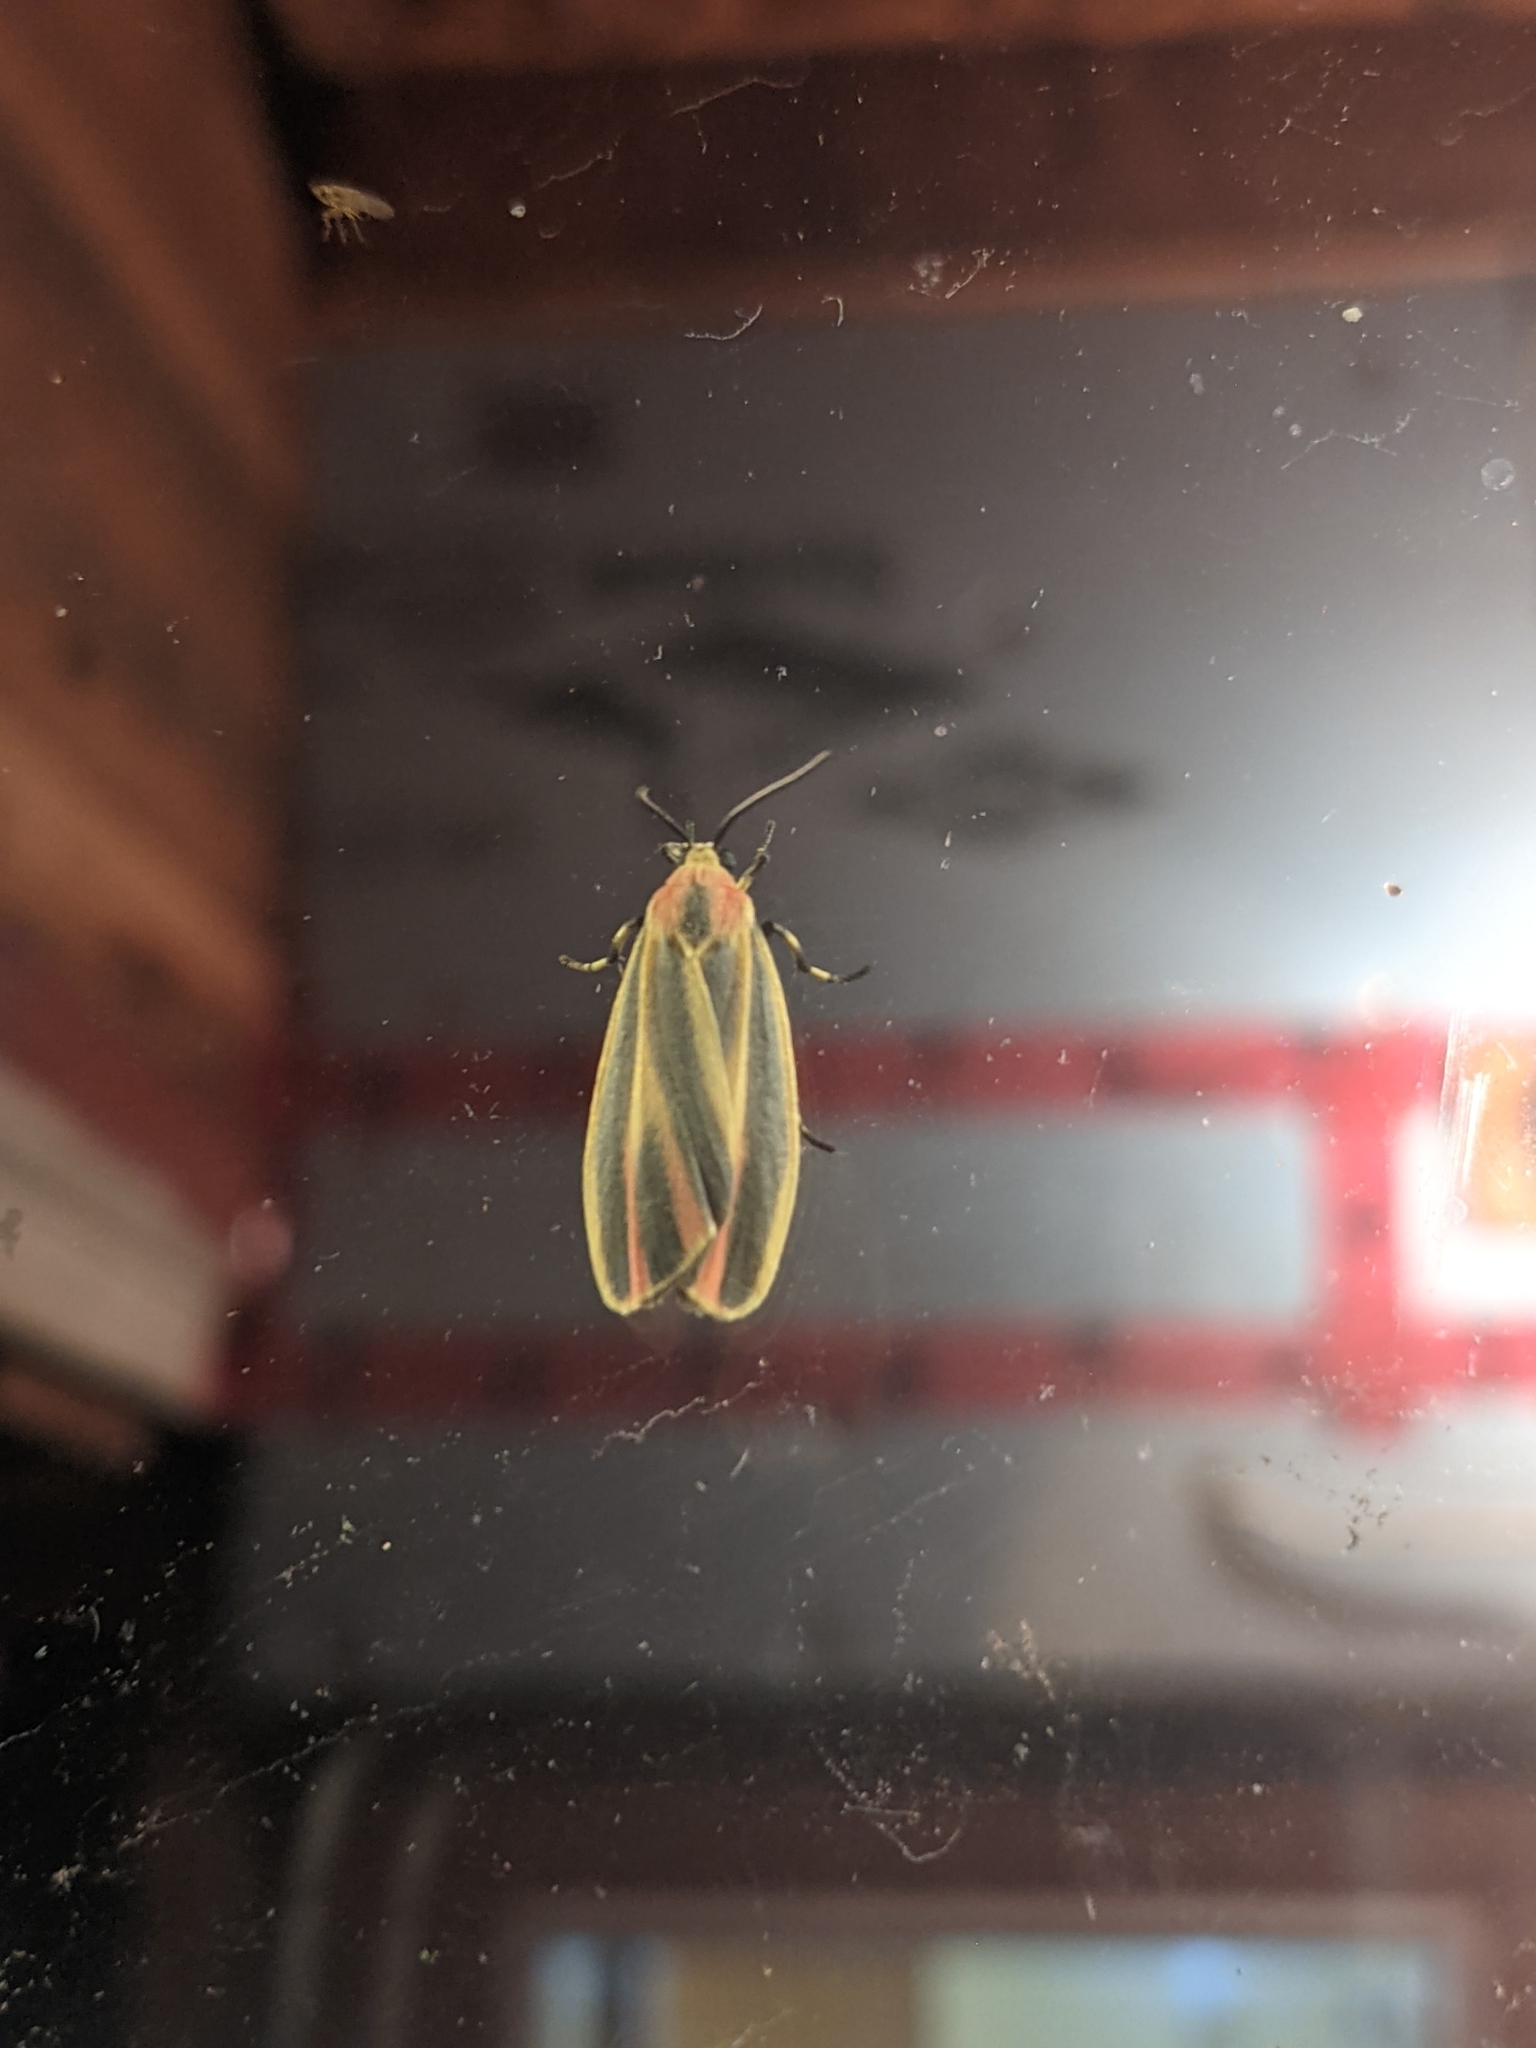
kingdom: Animalia
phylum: Arthropoda
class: Insecta
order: Lepidoptera
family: Erebidae
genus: Hypoprepia
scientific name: Hypoprepia fucosa
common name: Painted lichen moth
